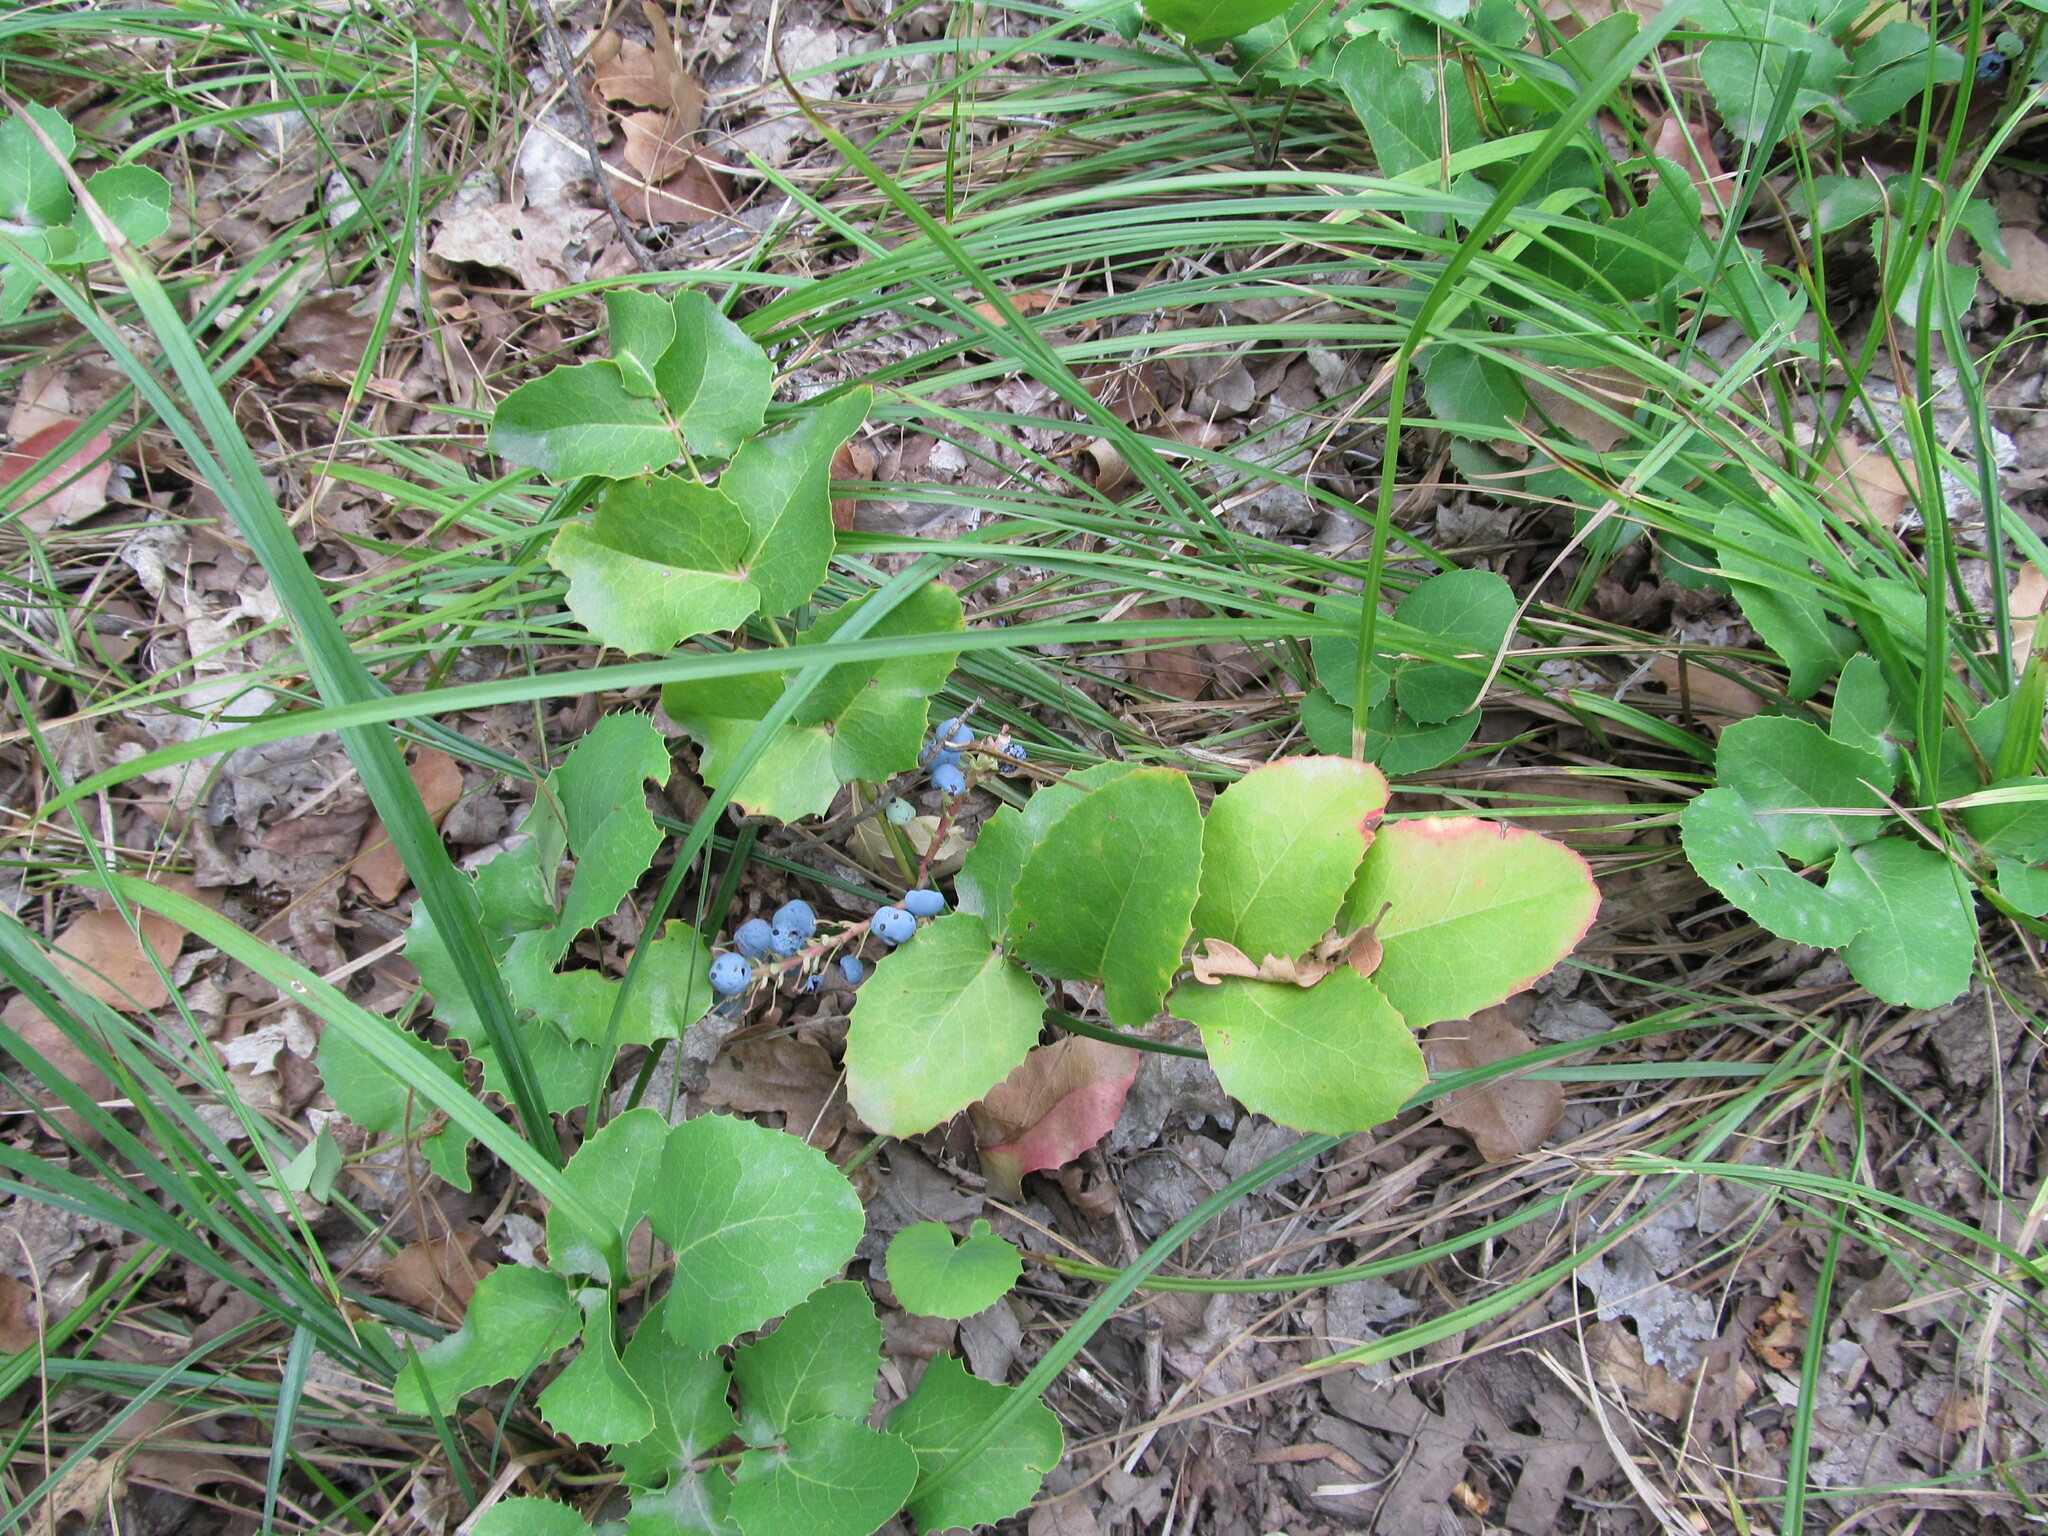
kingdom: Plantae
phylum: Tracheophyta
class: Magnoliopsida
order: Ranunculales
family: Berberidaceae
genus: Mahonia
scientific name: Mahonia repens
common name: Creeping oregon-grape
